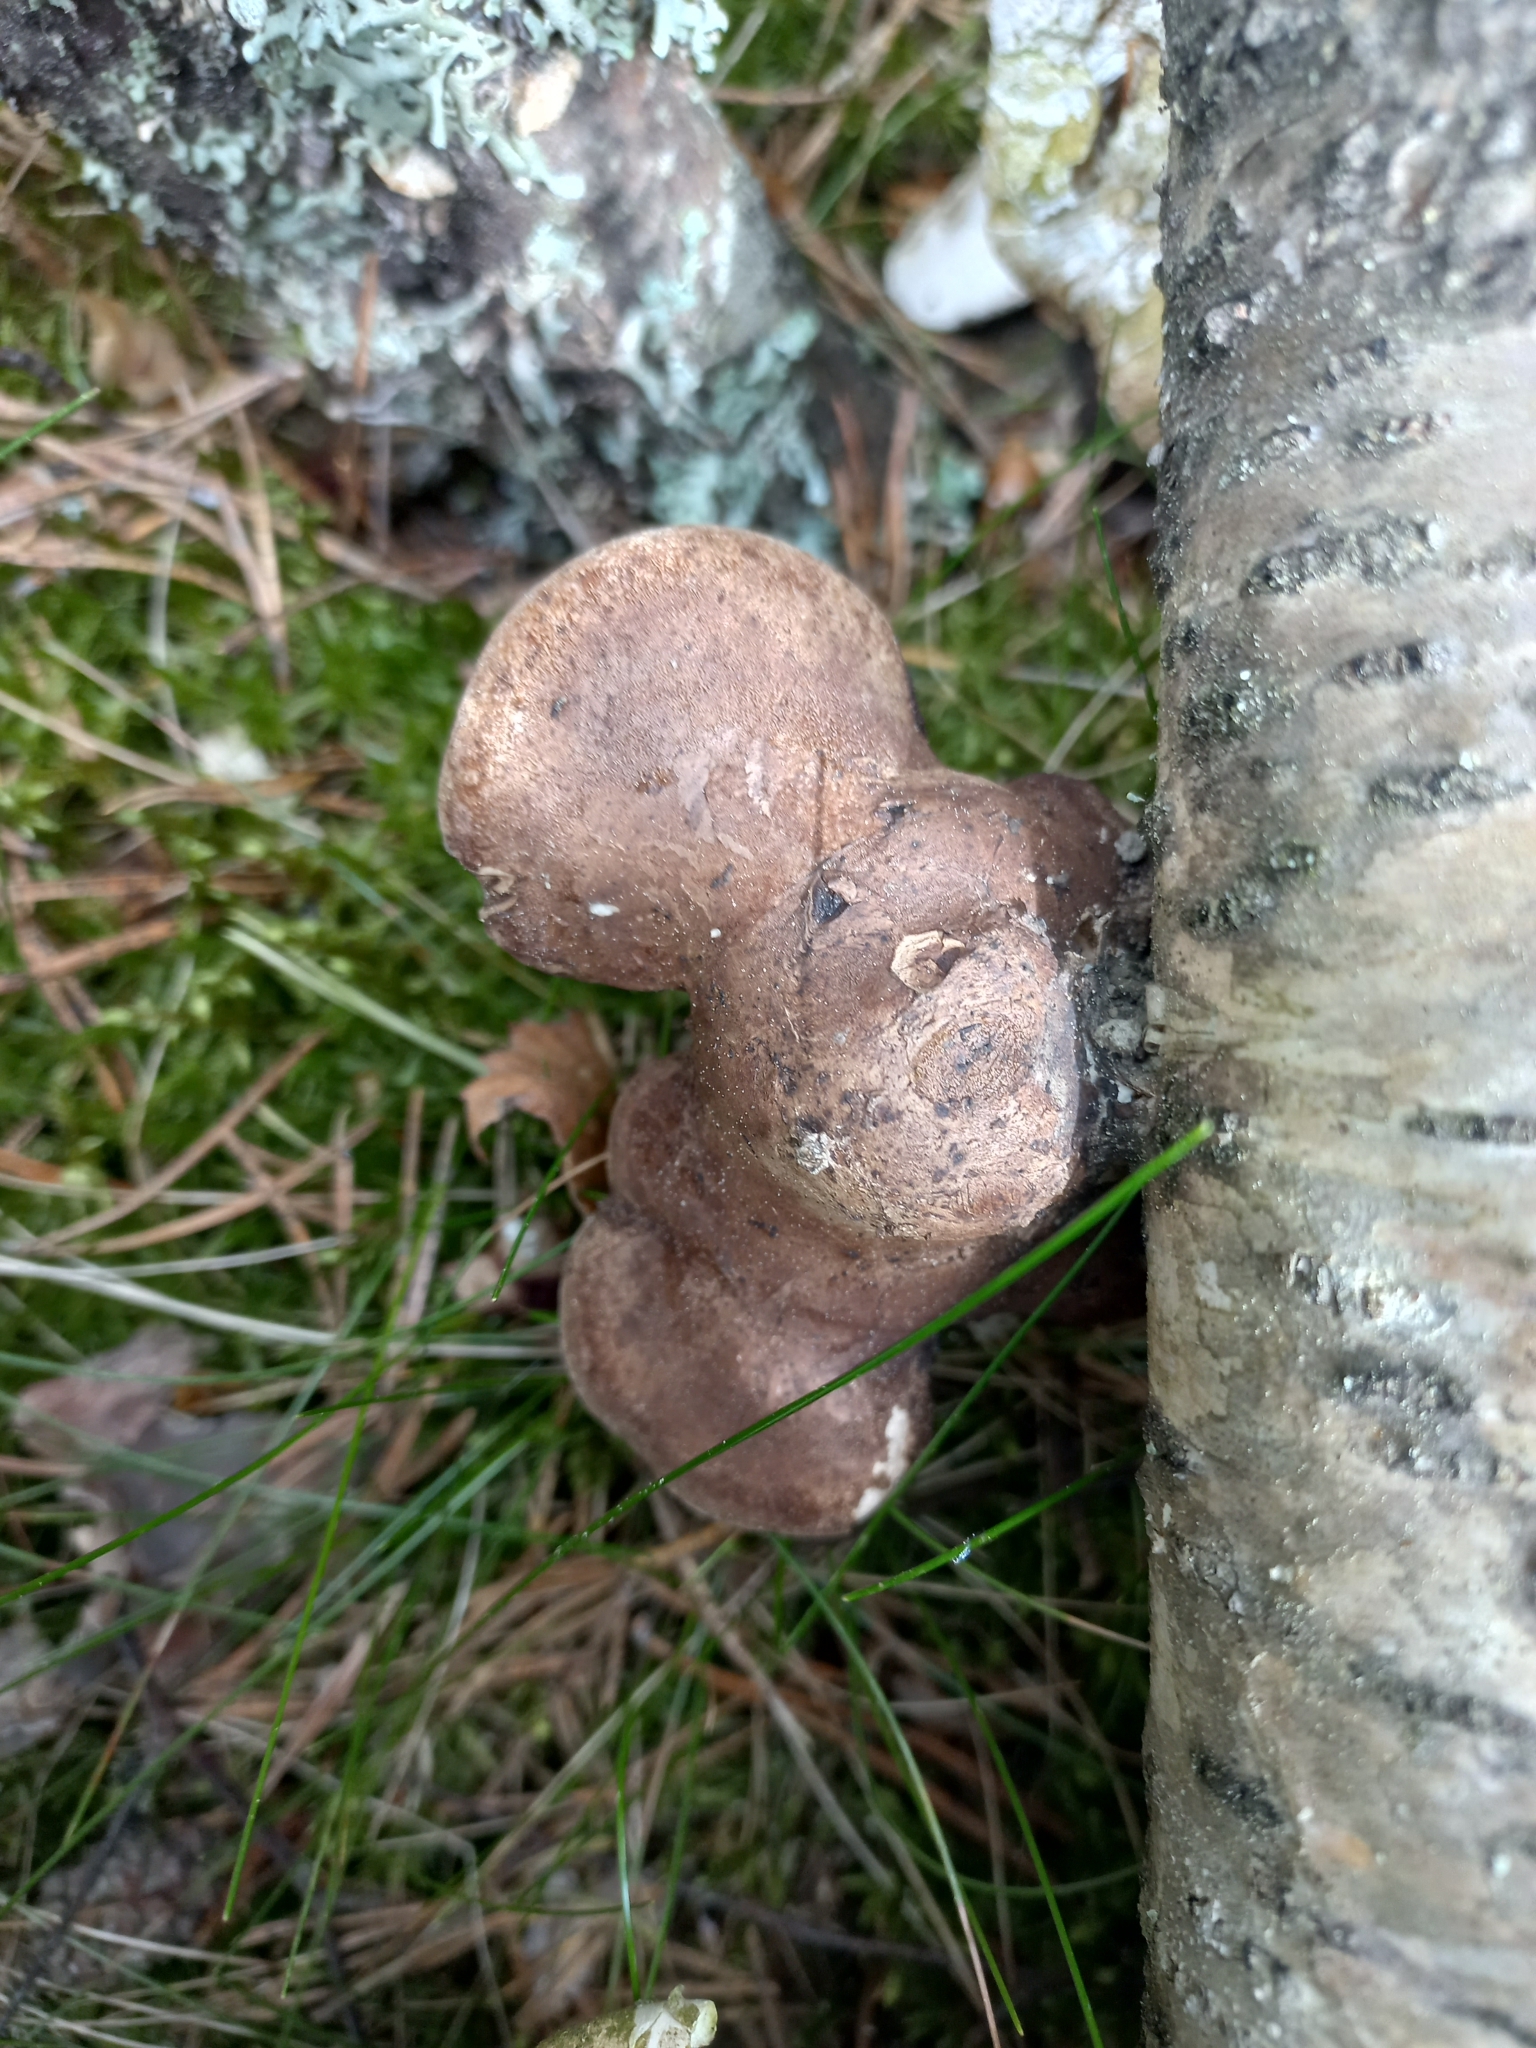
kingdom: Fungi
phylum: Basidiomycota
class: Agaricomycetes
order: Polyporales
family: Fomitopsidaceae
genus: Fomitopsis
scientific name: Fomitopsis betulina
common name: Birch polypore
